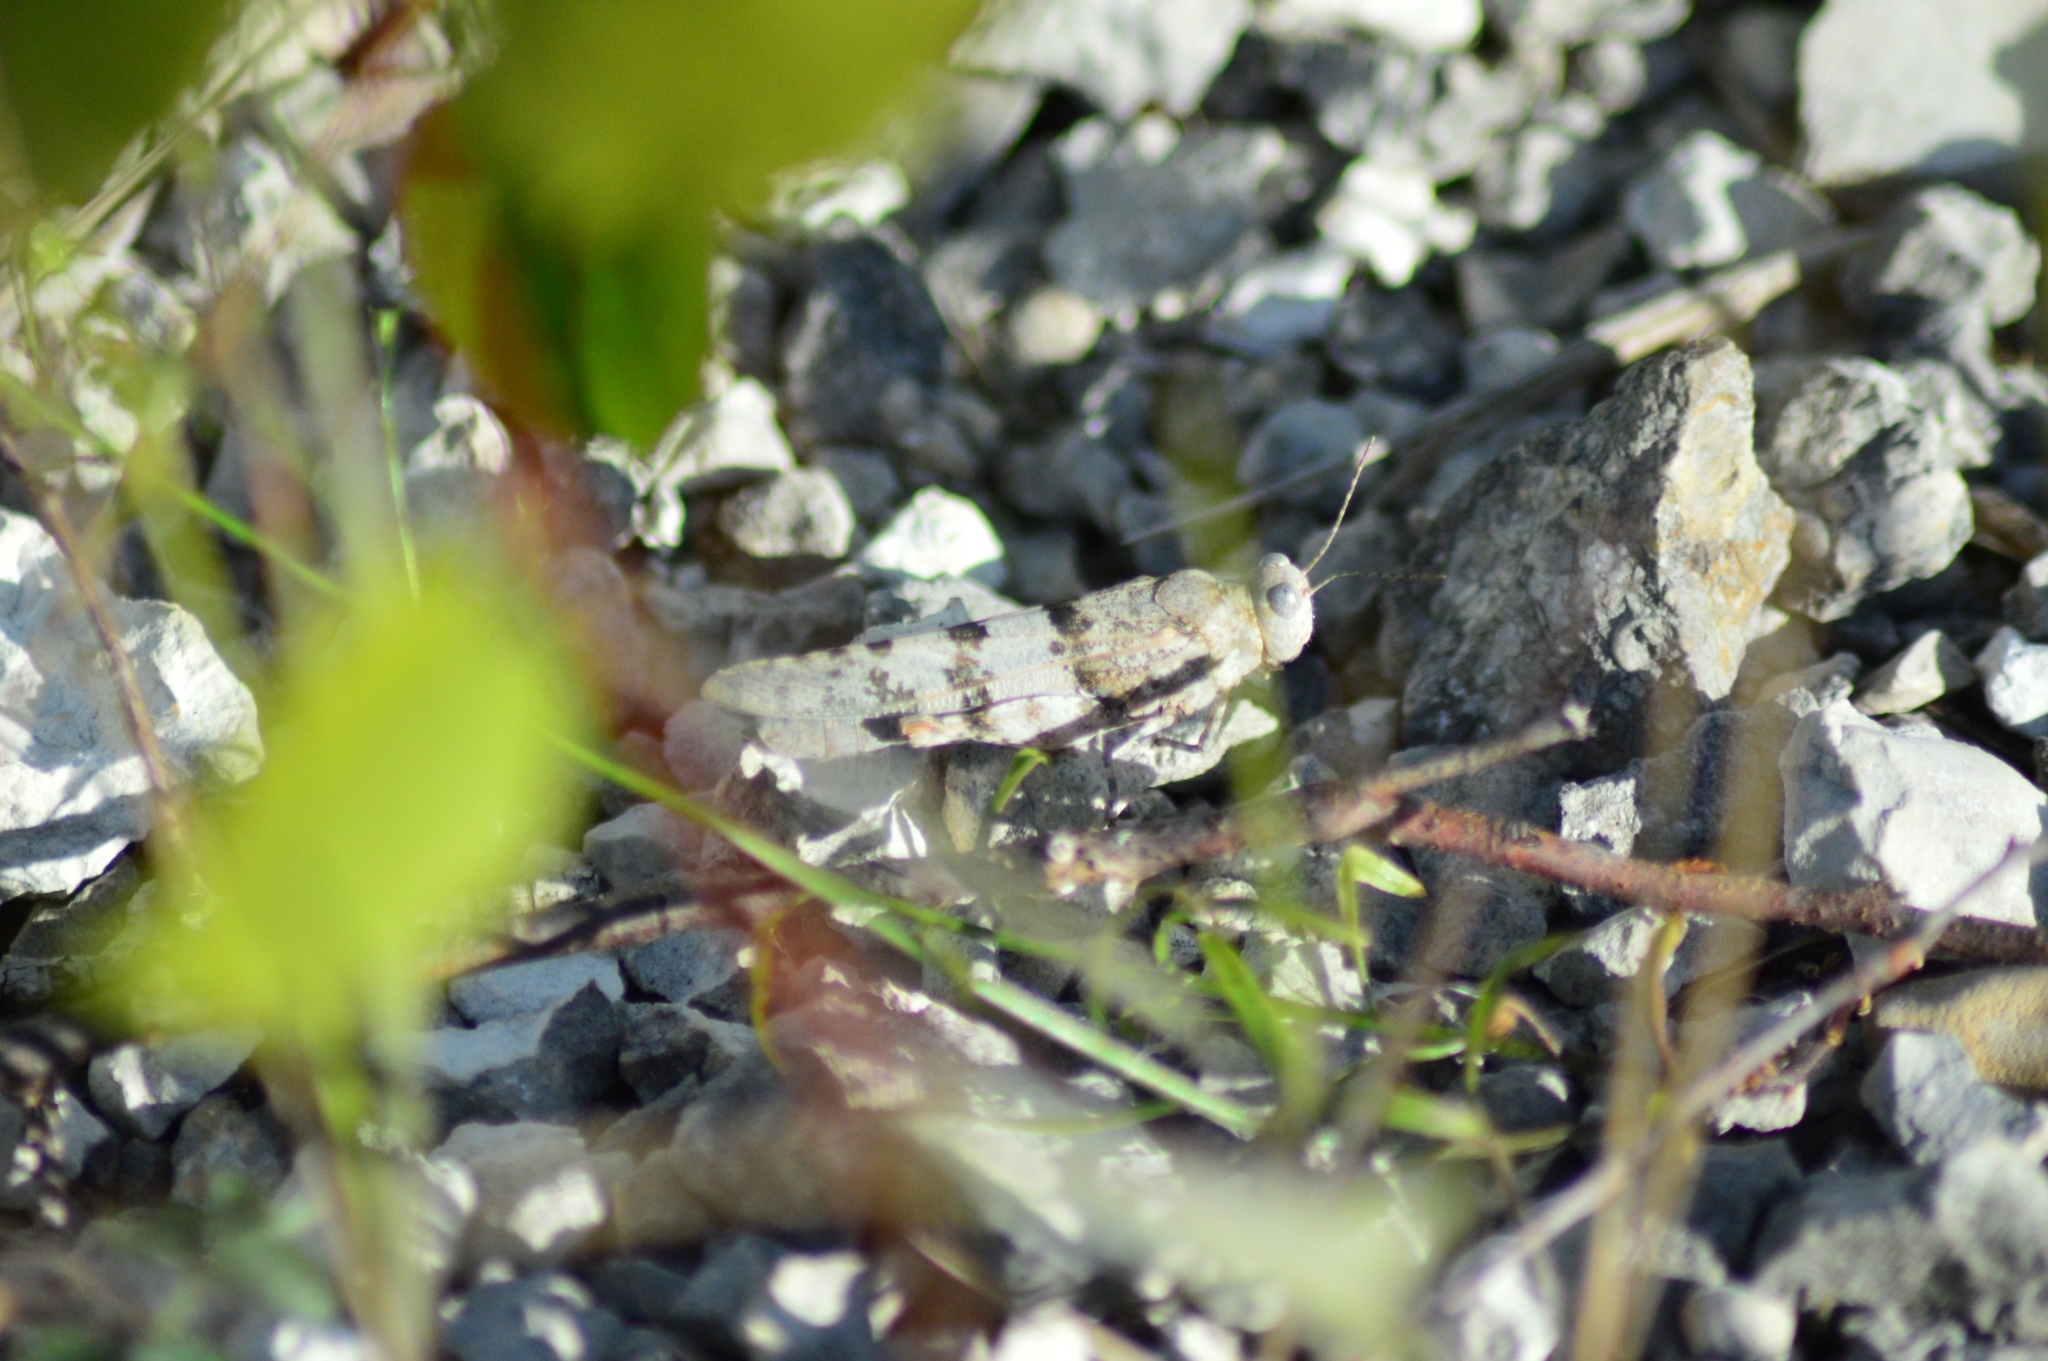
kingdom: Animalia
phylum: Arthropoda
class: Insecta
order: Orthoptera
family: Acrididae
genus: Sphingonotus
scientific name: Sphingonotus caerulans
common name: Blue-winged locust
